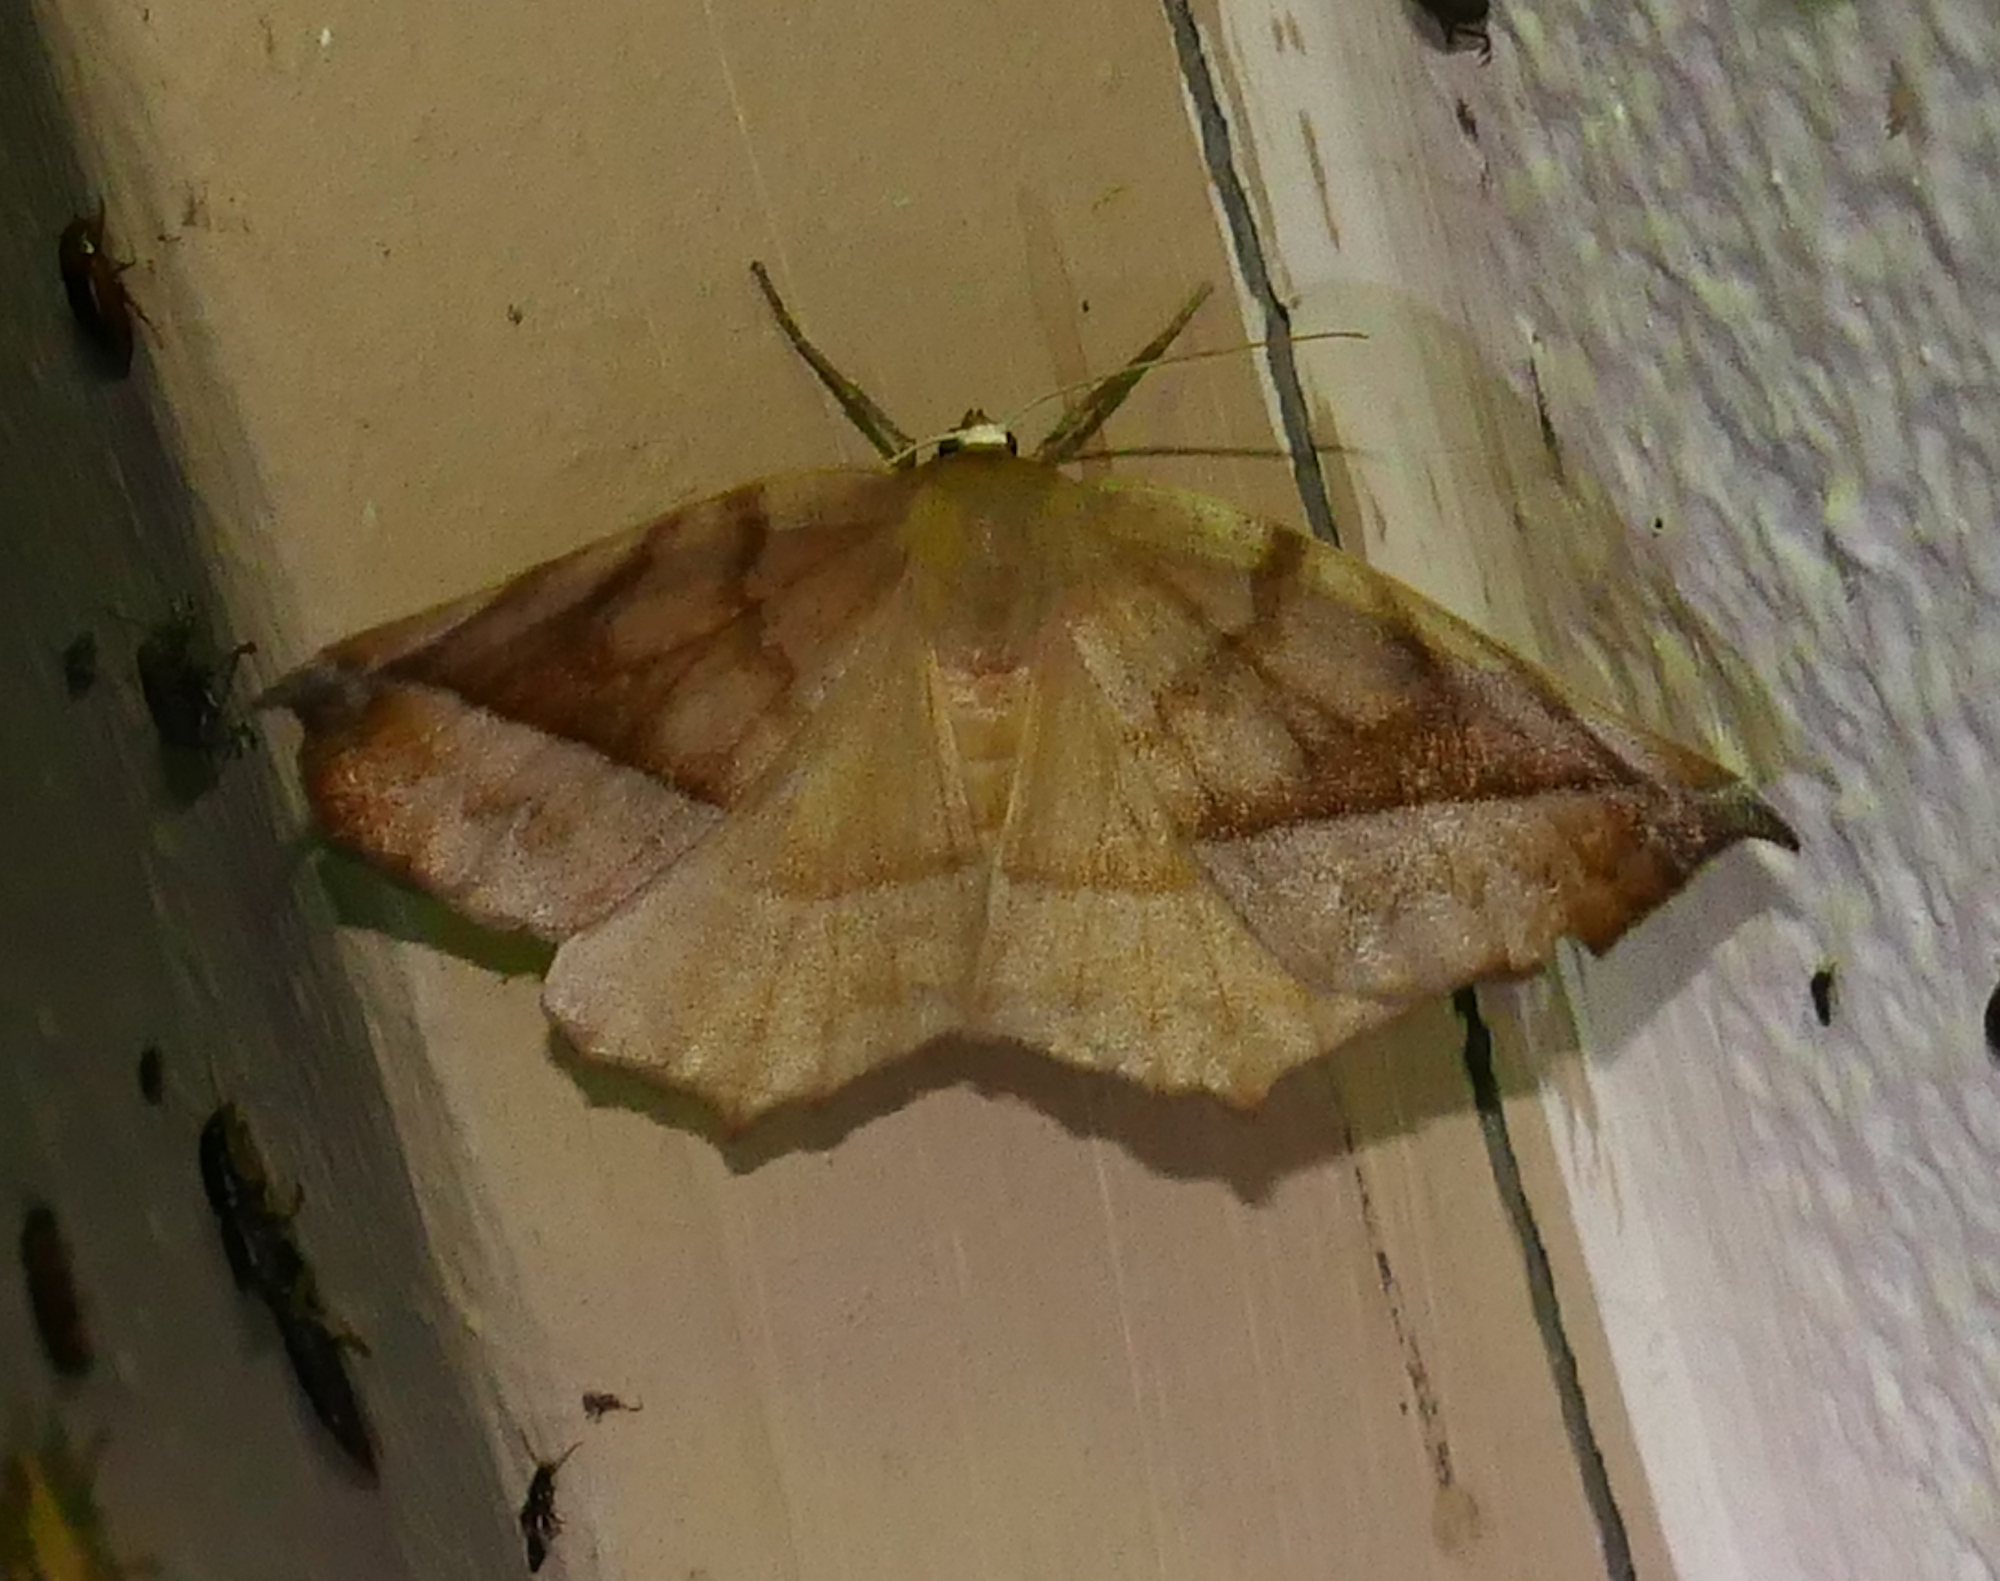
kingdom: Animalia
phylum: Arthropoda
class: Insecta
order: Lepidoptera
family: Geometridae
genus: Eutrapela
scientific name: Eutrapela clemataria
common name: Curved-toothed geometer
